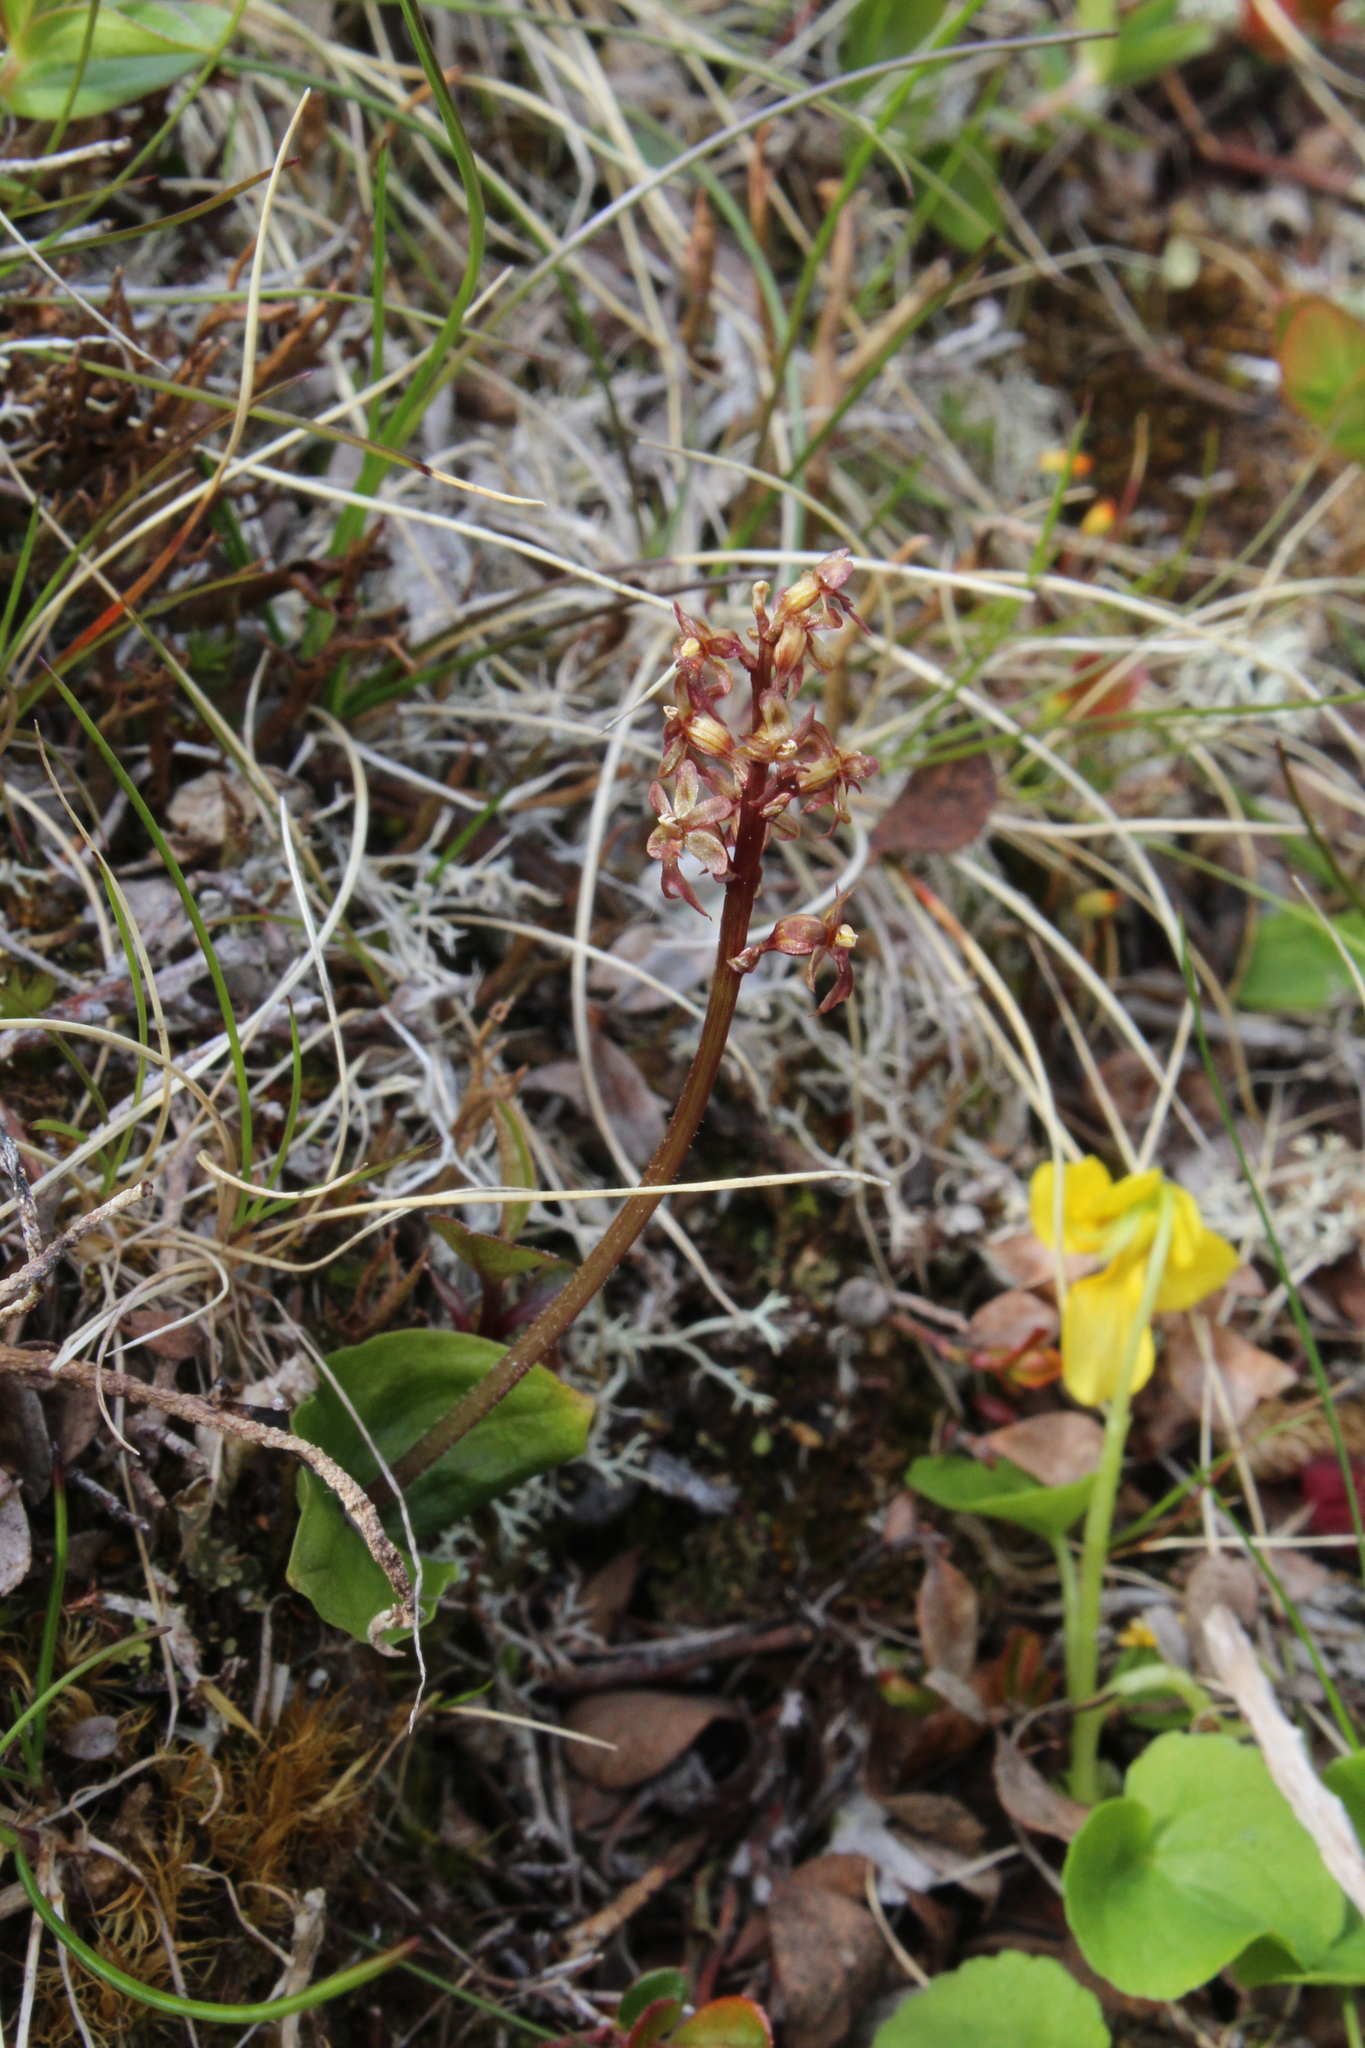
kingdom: Plantae
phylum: Tracheophyta
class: Liliopsida
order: Asparagales
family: Orchidaceae
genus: Neottia
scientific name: Neottia cordata
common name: Lesser twayblade
